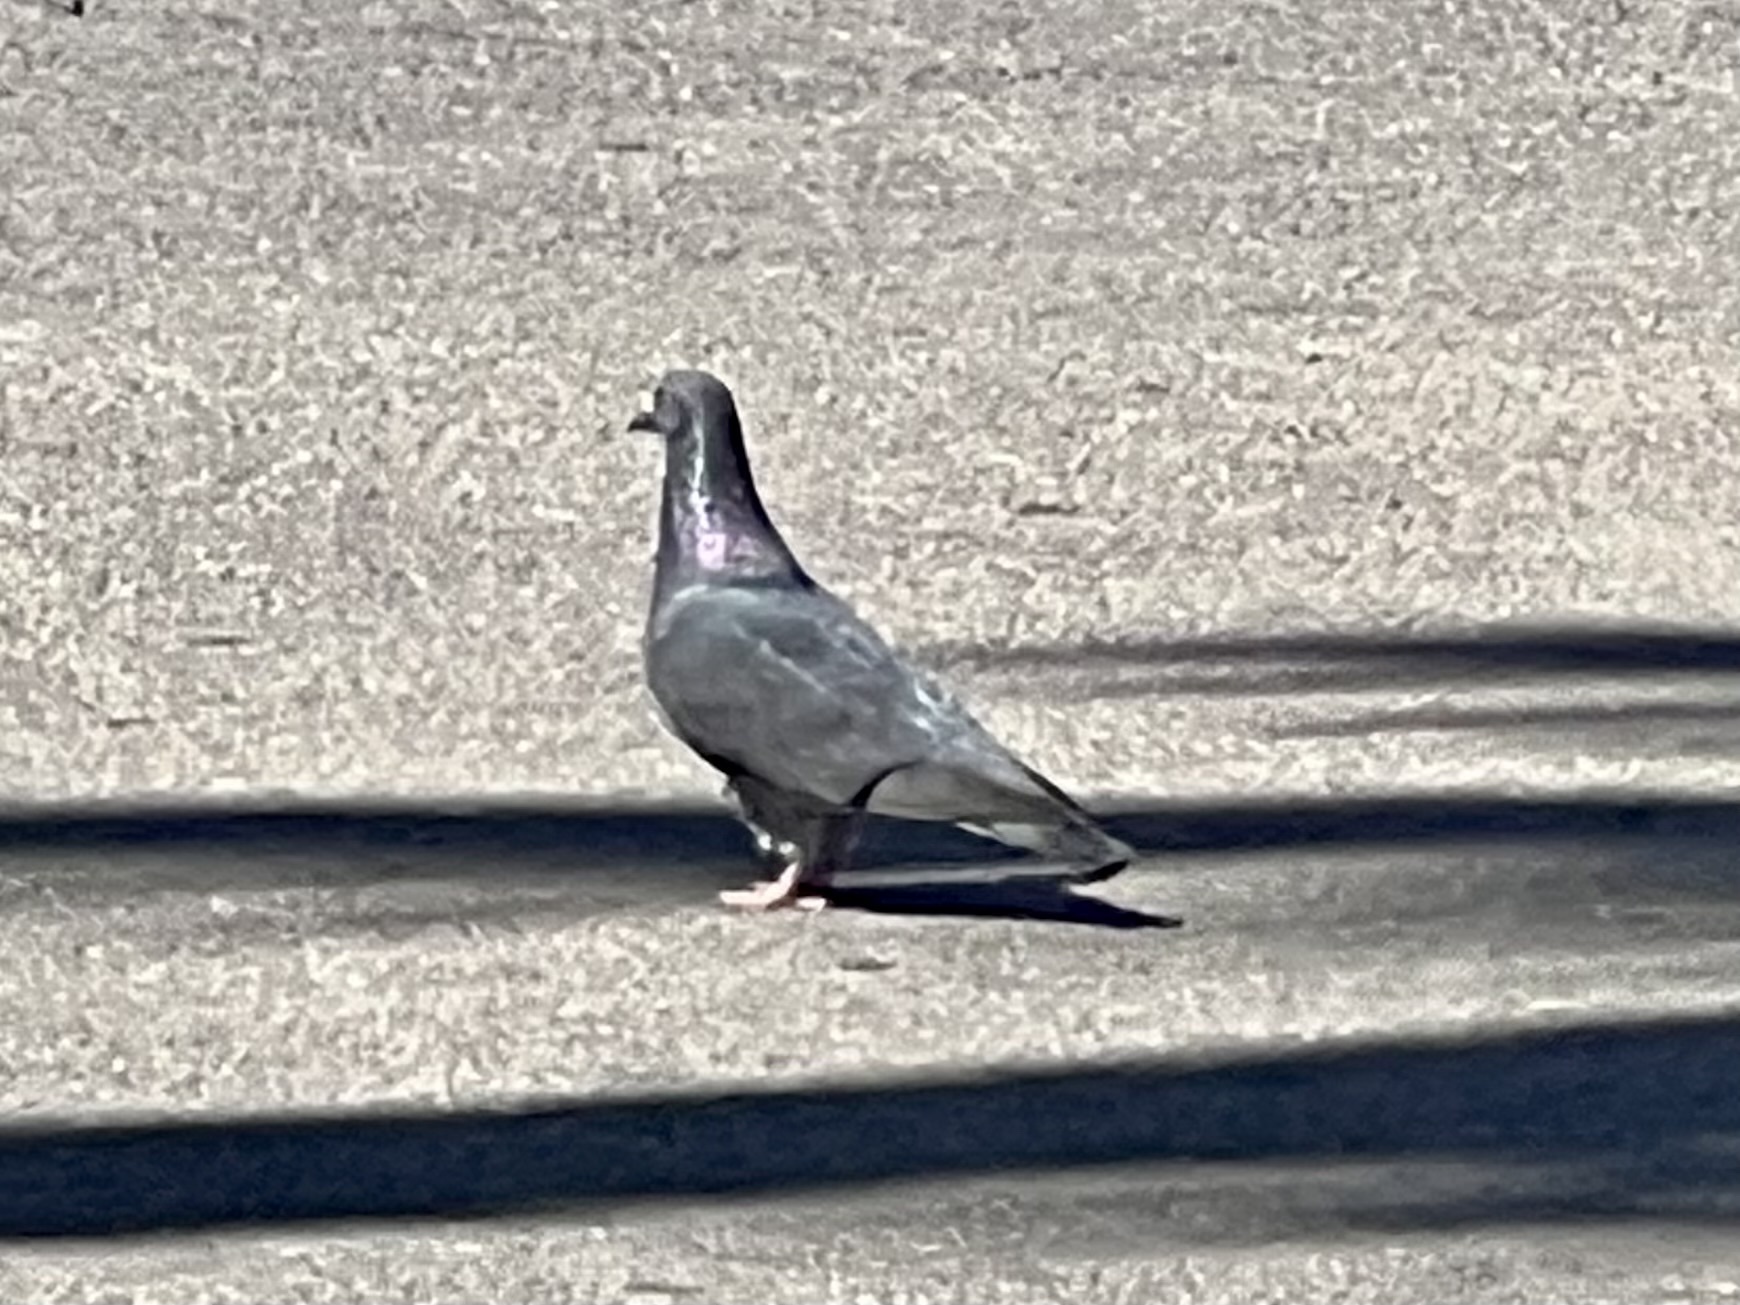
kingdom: Animalia
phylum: Chordata
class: Aves
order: Columbiformes
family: Columbidae
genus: Columba
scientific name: Columba livia
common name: Rock pigeon
